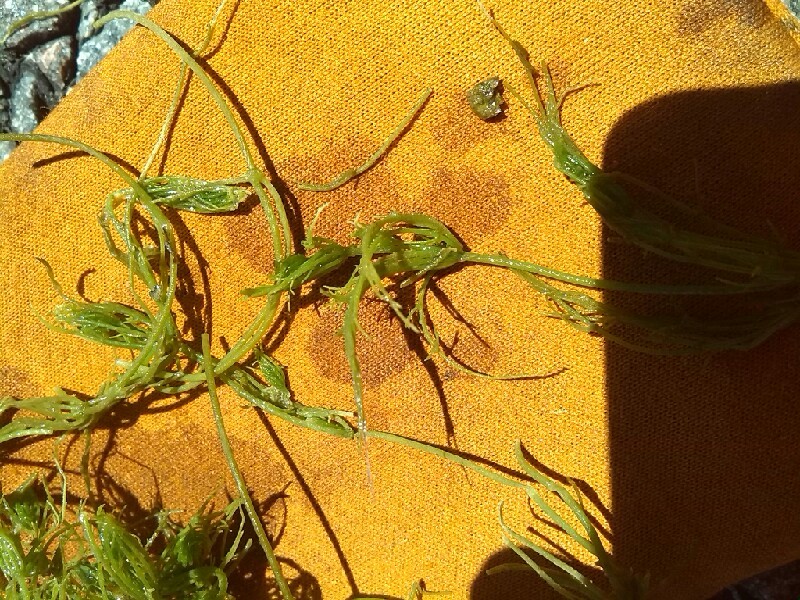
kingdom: Plantae
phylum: Charophyta
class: Charophyceae
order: Charales
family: Characeae
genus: Chara
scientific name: Chara vulgaris
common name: Common stonewort
